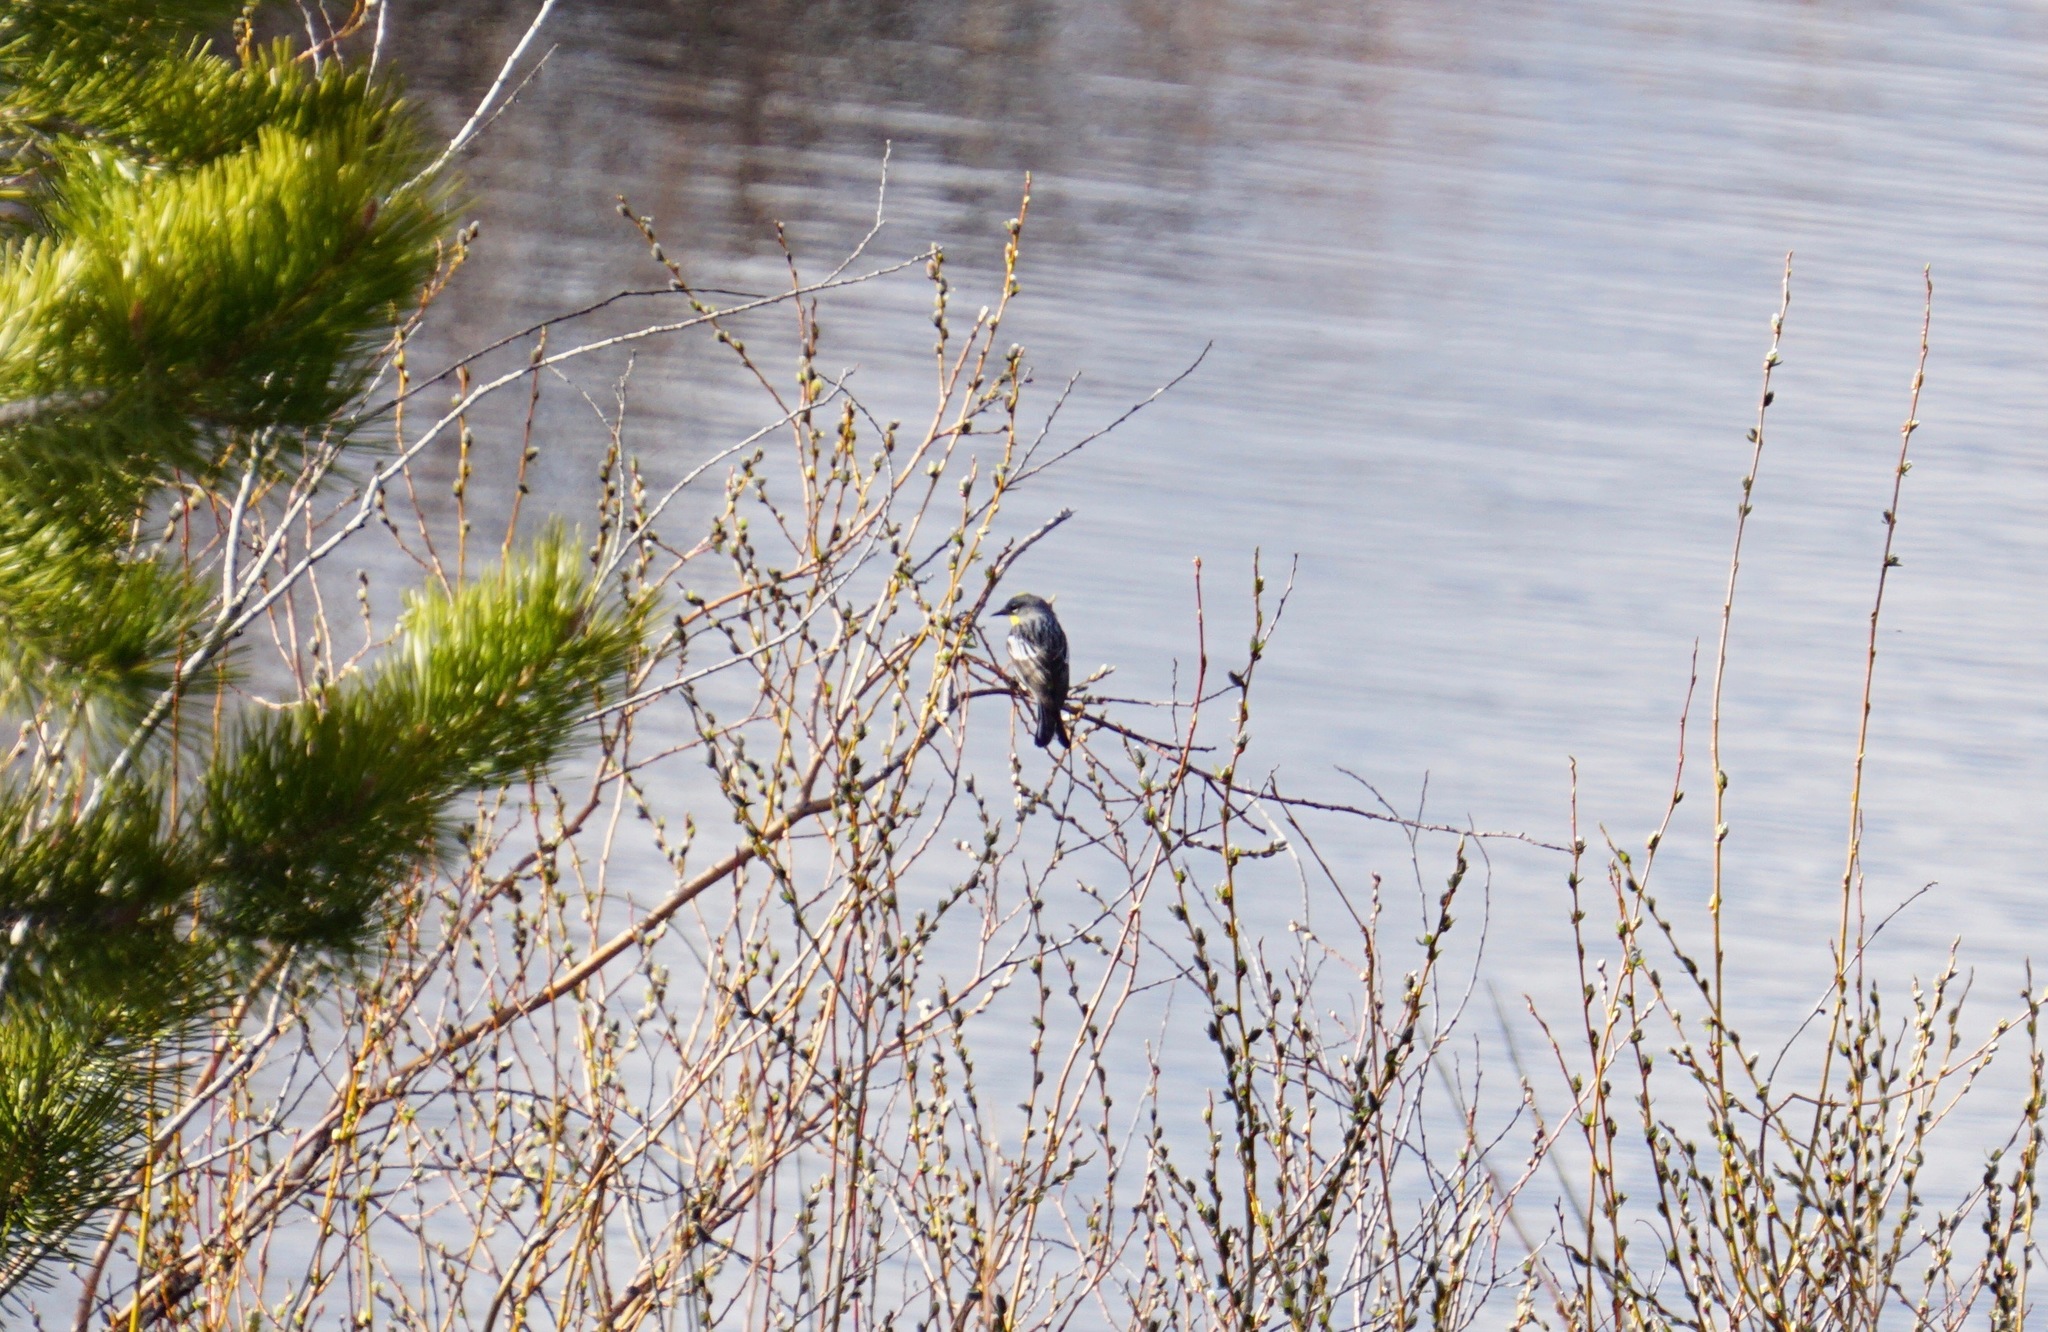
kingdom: Animalia
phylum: Chordata
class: Aves
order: Passeriformes
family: Parulidae
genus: Setophaga
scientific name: Setophaga coronata
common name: Myrtle warbler
